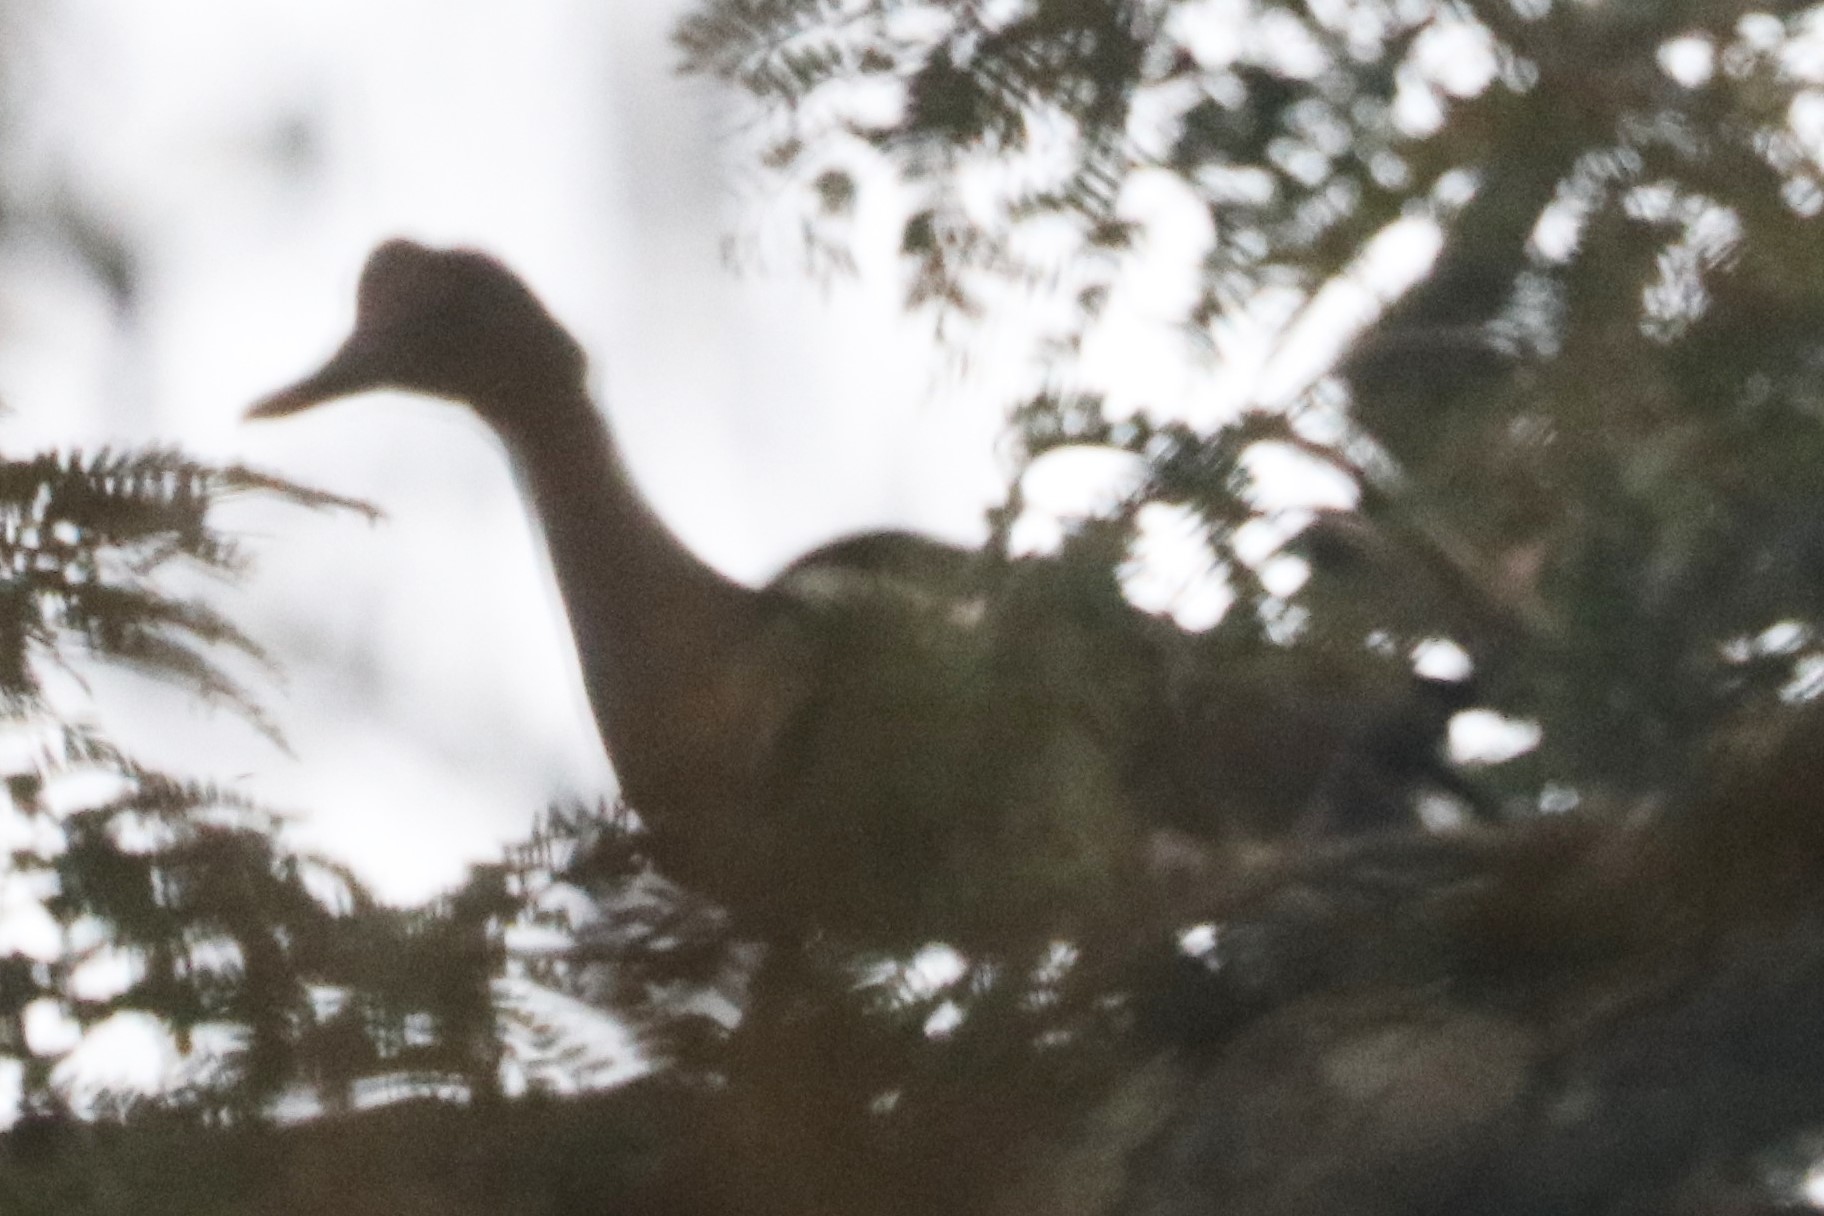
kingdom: Animalia
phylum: Chordata
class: Aves
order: Anseriformes
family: Anatidae
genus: Cairina
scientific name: Cairina moschata
